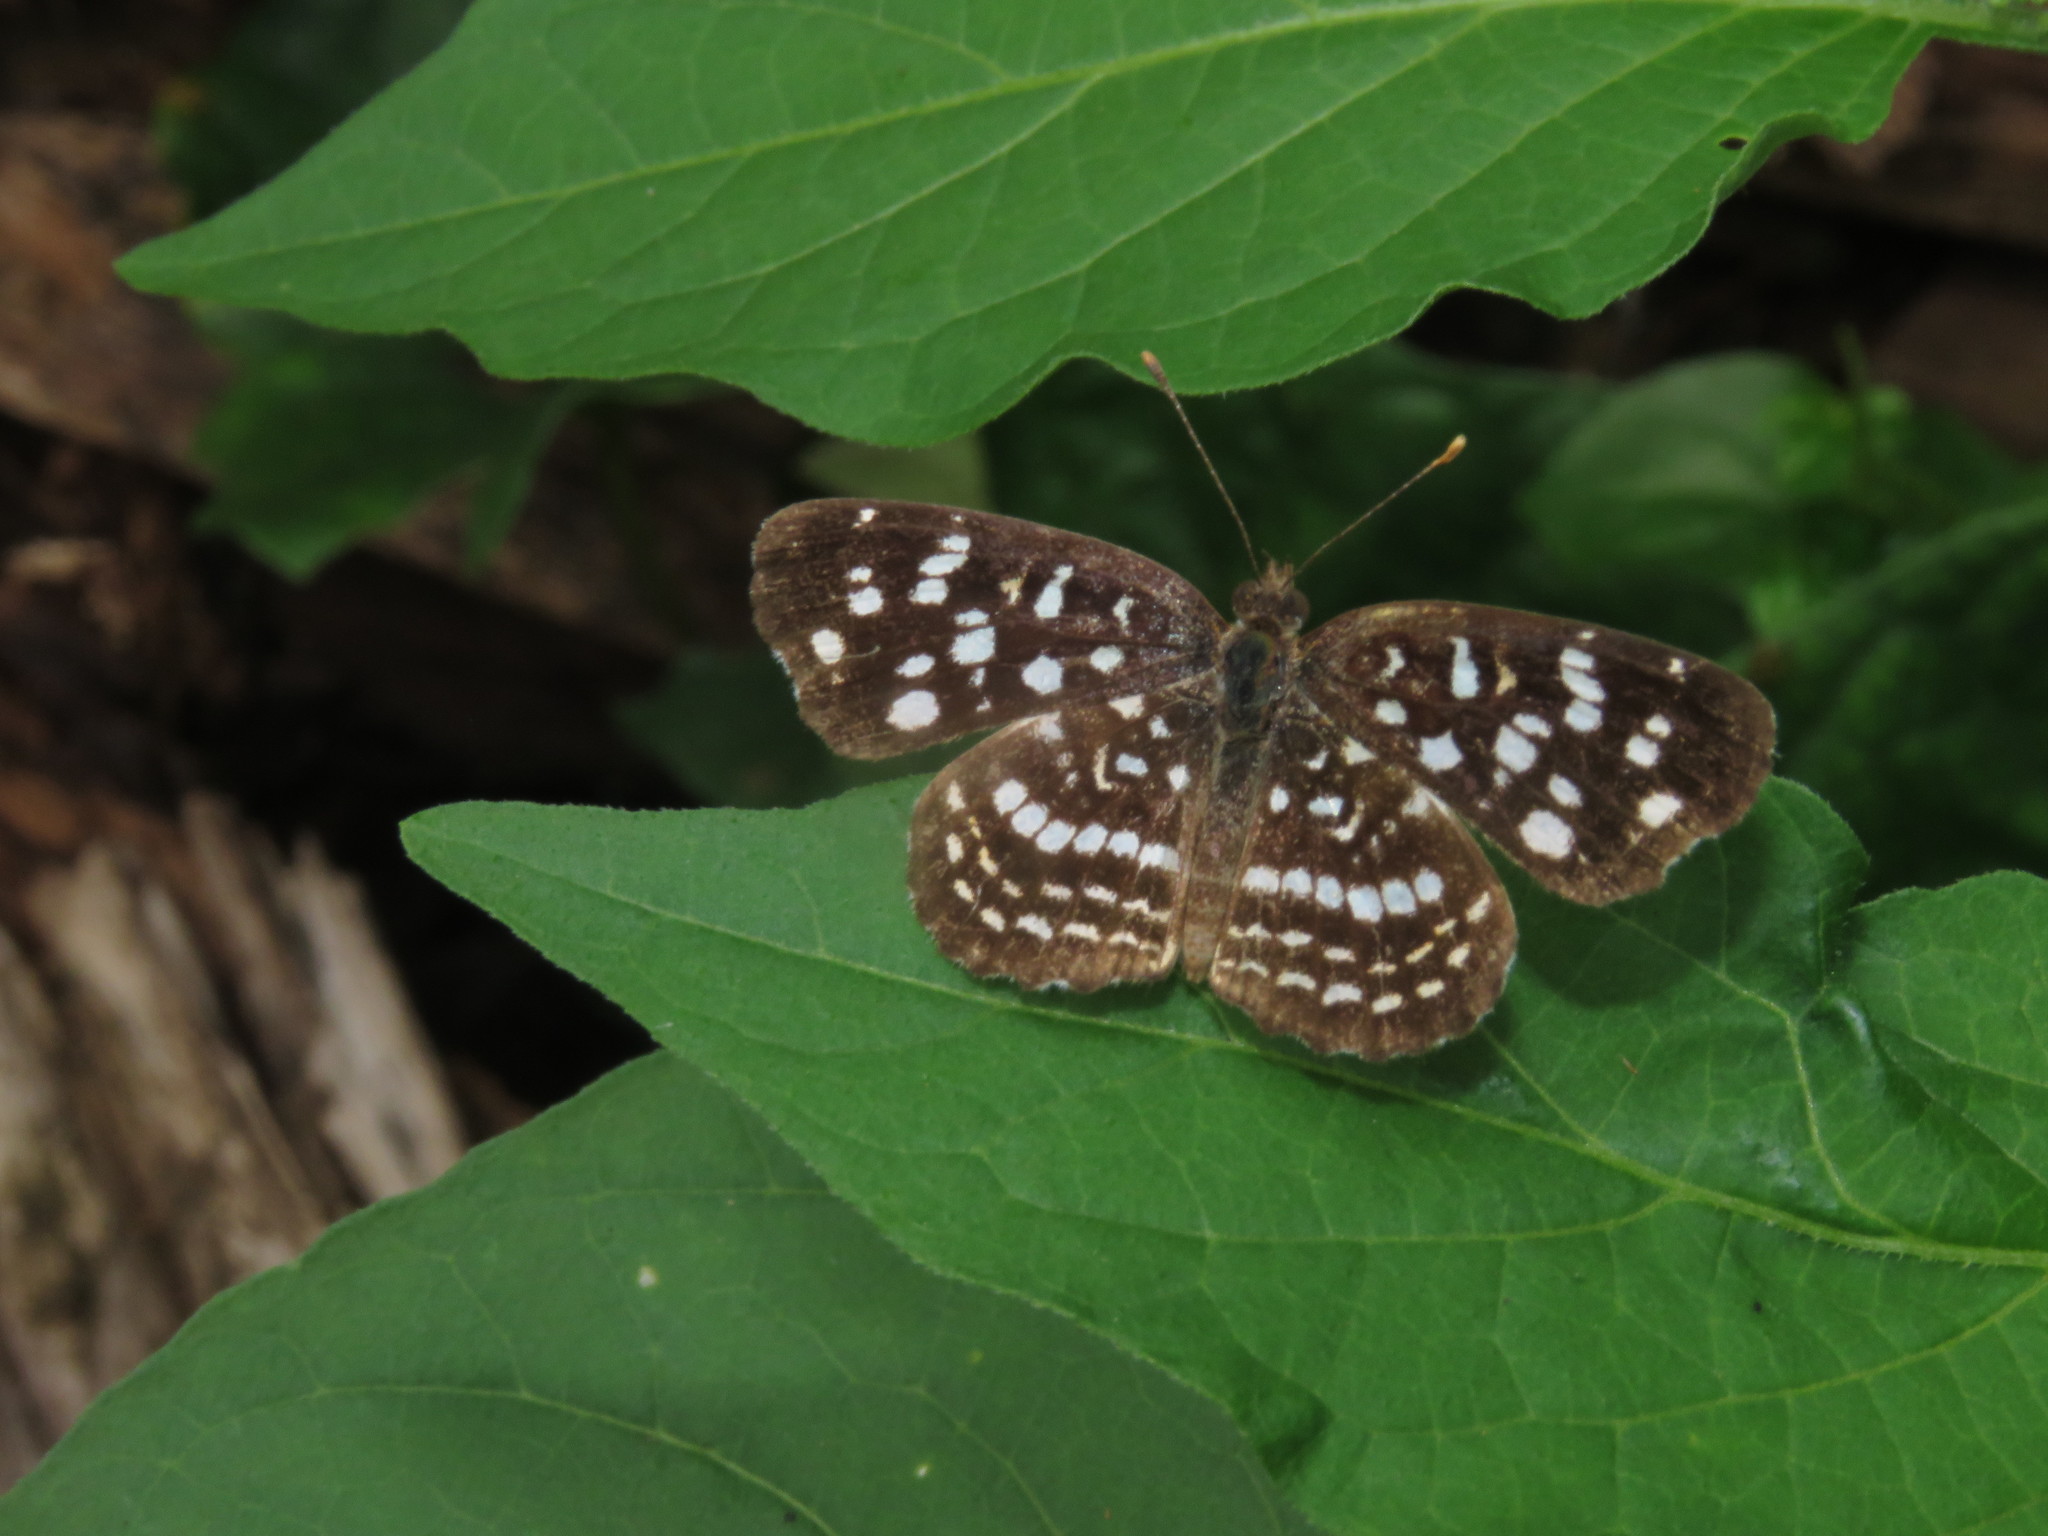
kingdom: Animalia
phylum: Arthropoda
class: Insecta
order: Lepidoptera
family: Nymphalidae
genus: Anthanassa
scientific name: Anthanassa hermas
